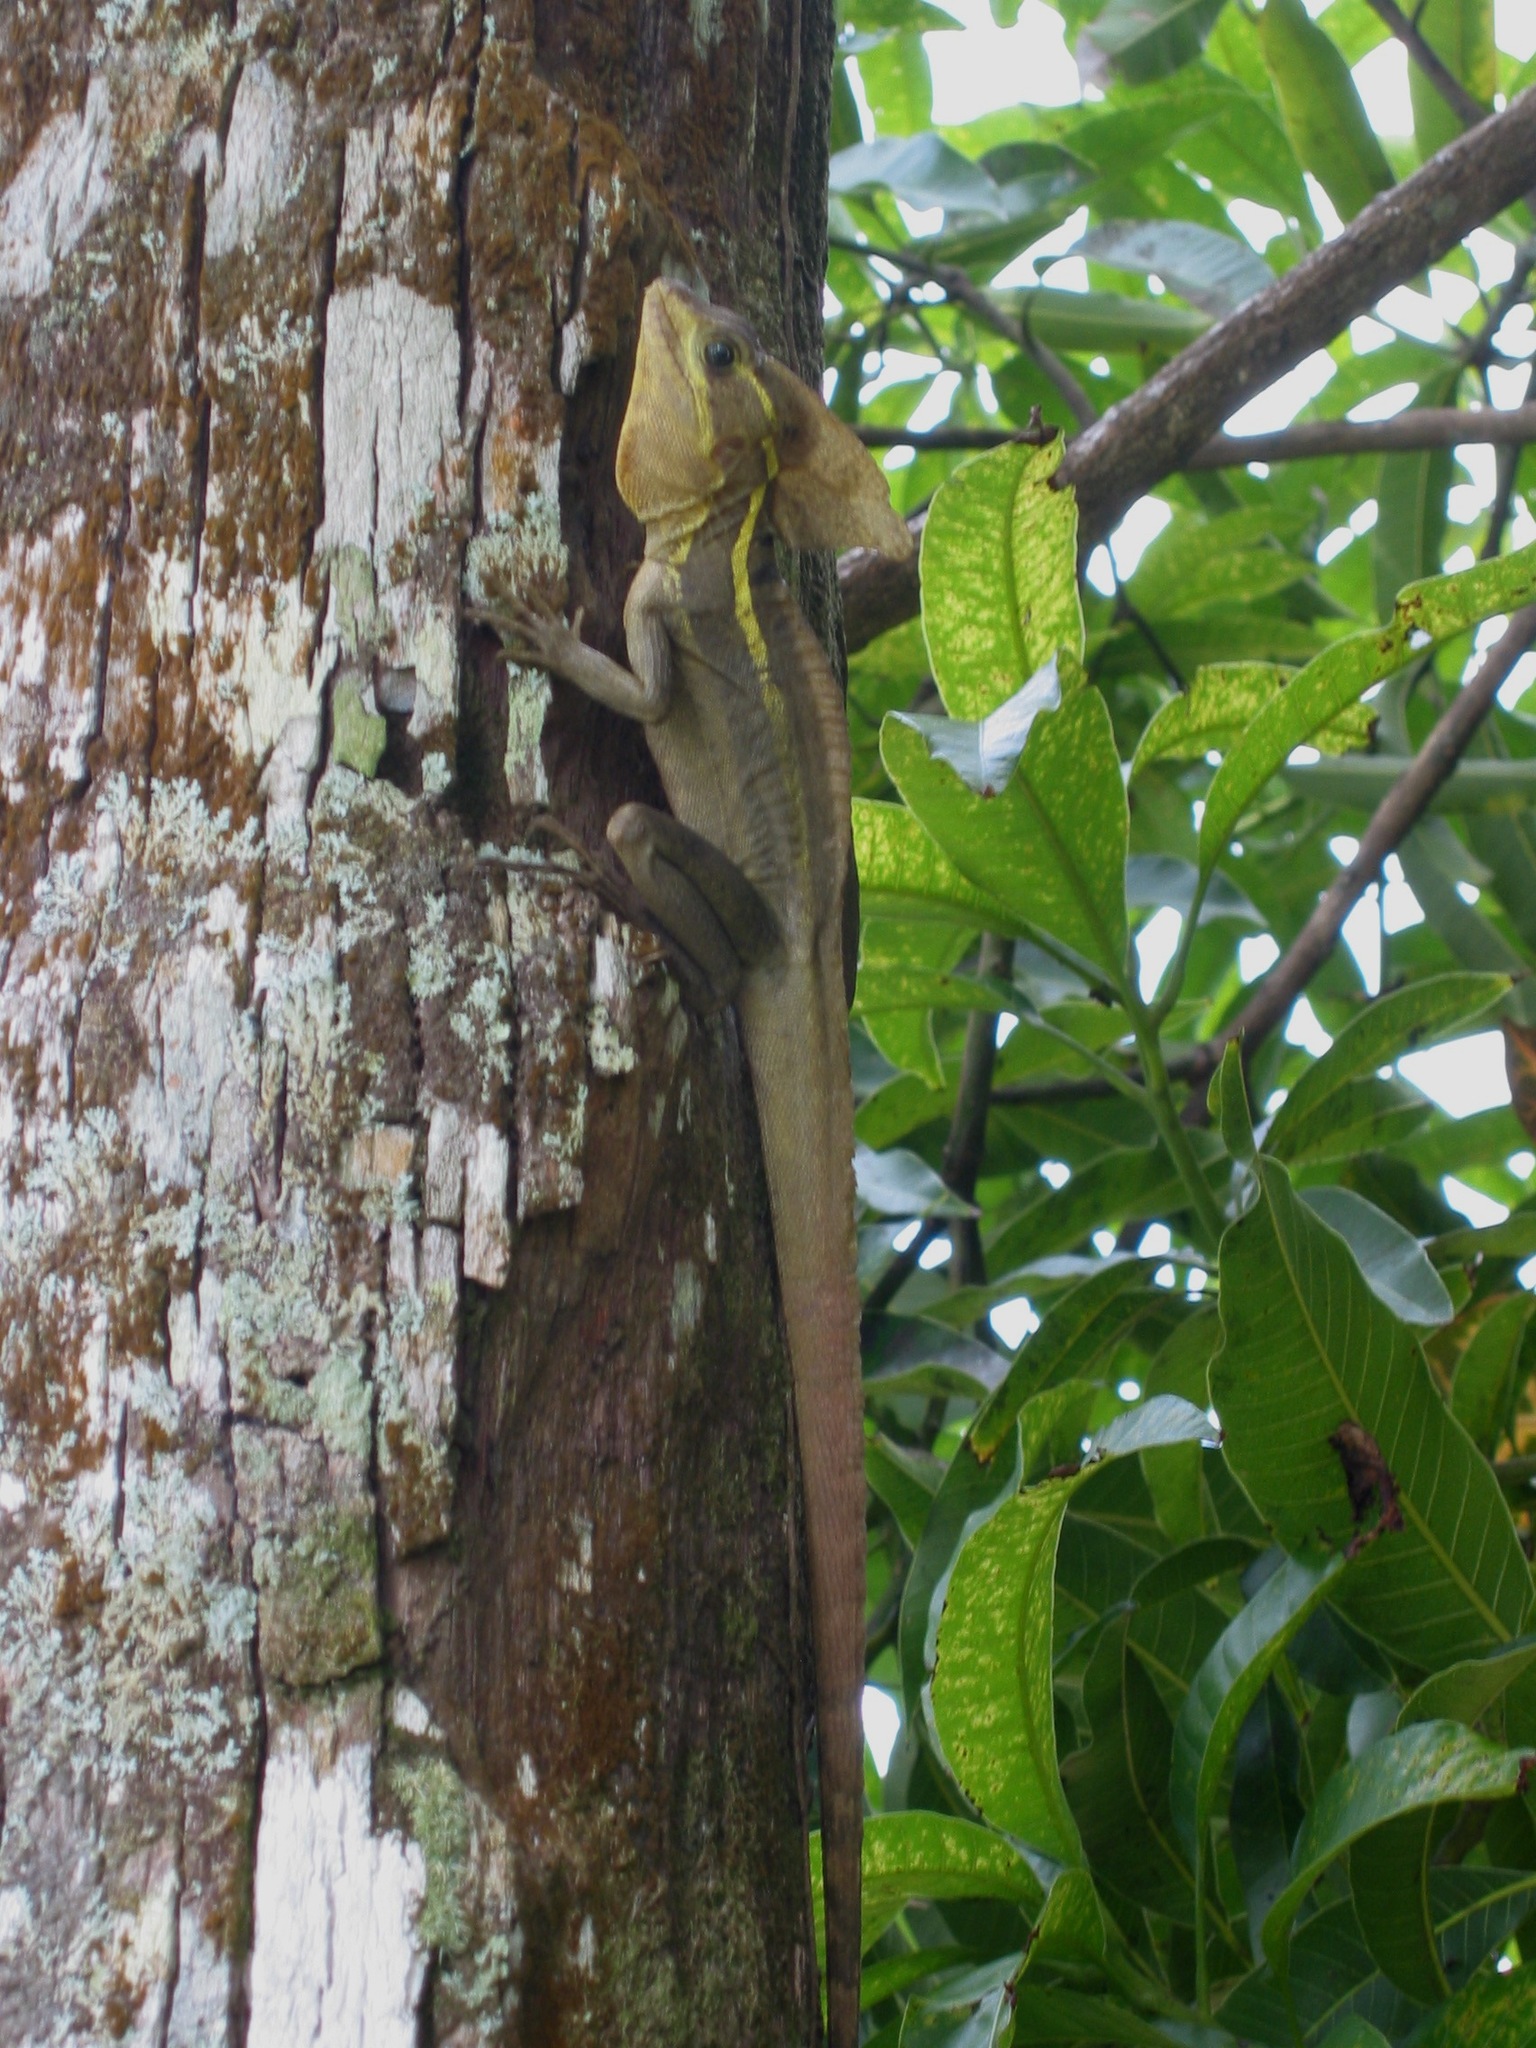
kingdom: Animalia
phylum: Chordata
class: Squamata
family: Corytophanidae
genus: Basiliscus
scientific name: Basiliscus vittatus
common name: Brown basilisk
